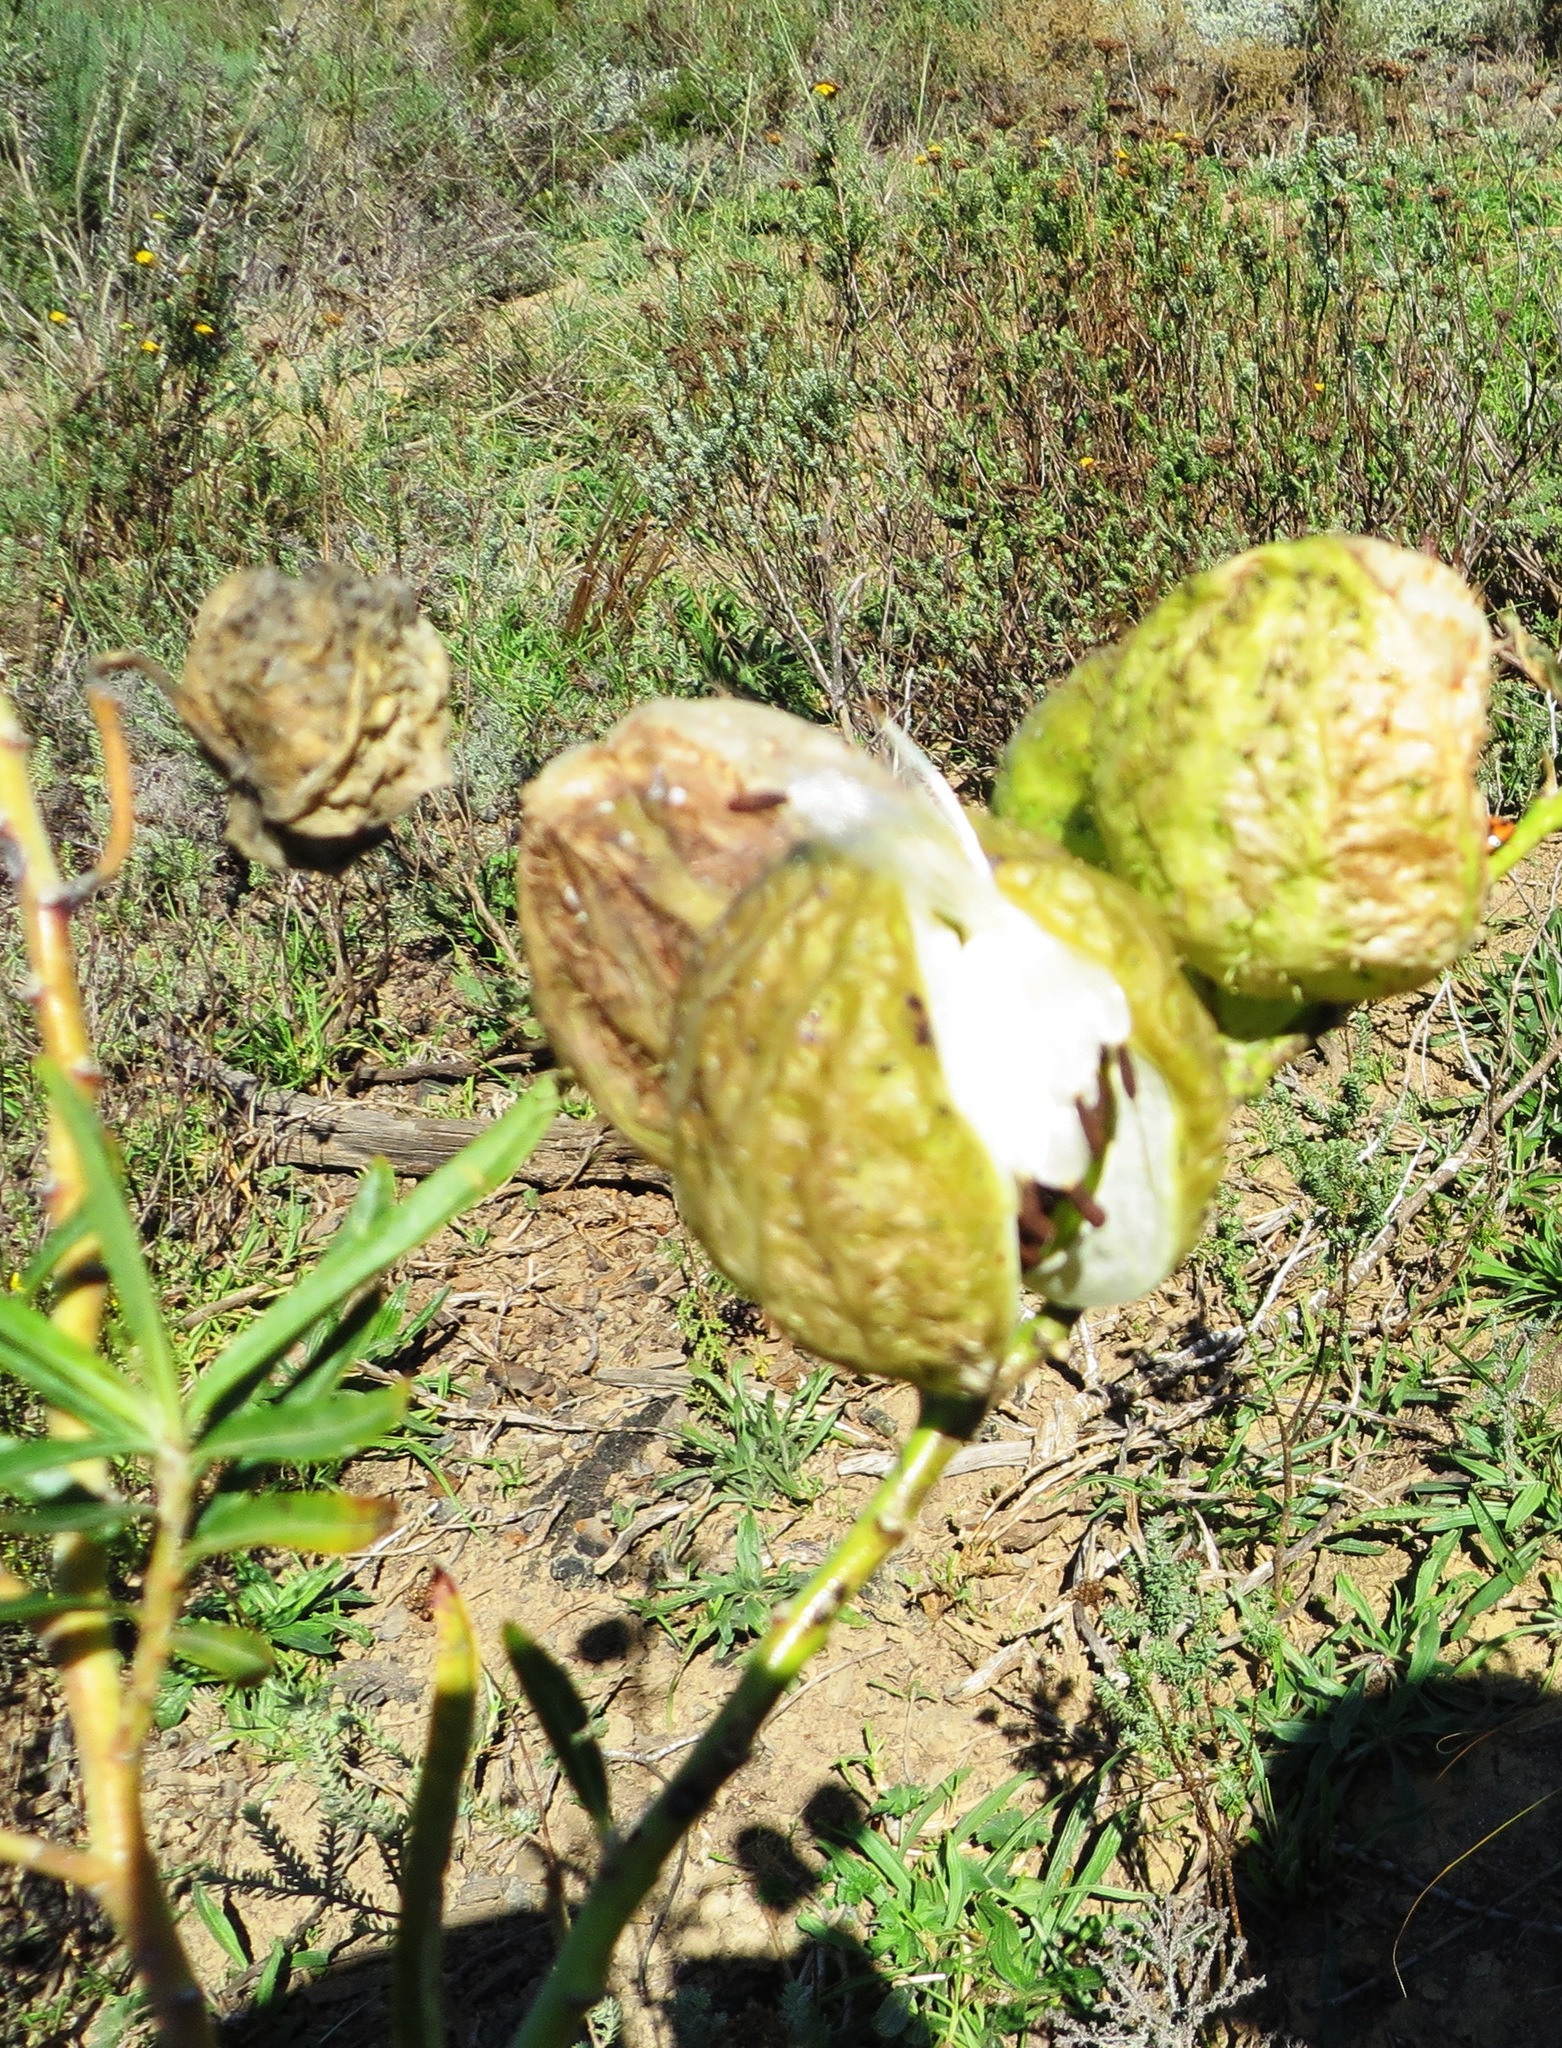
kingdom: Plantae
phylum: Tracheophyta
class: Magnoliopsida
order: Gentianales
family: Apocynaceae
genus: Gomphocarpus
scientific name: Gomphocarpus physocarpus
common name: Balloon cotton bush
